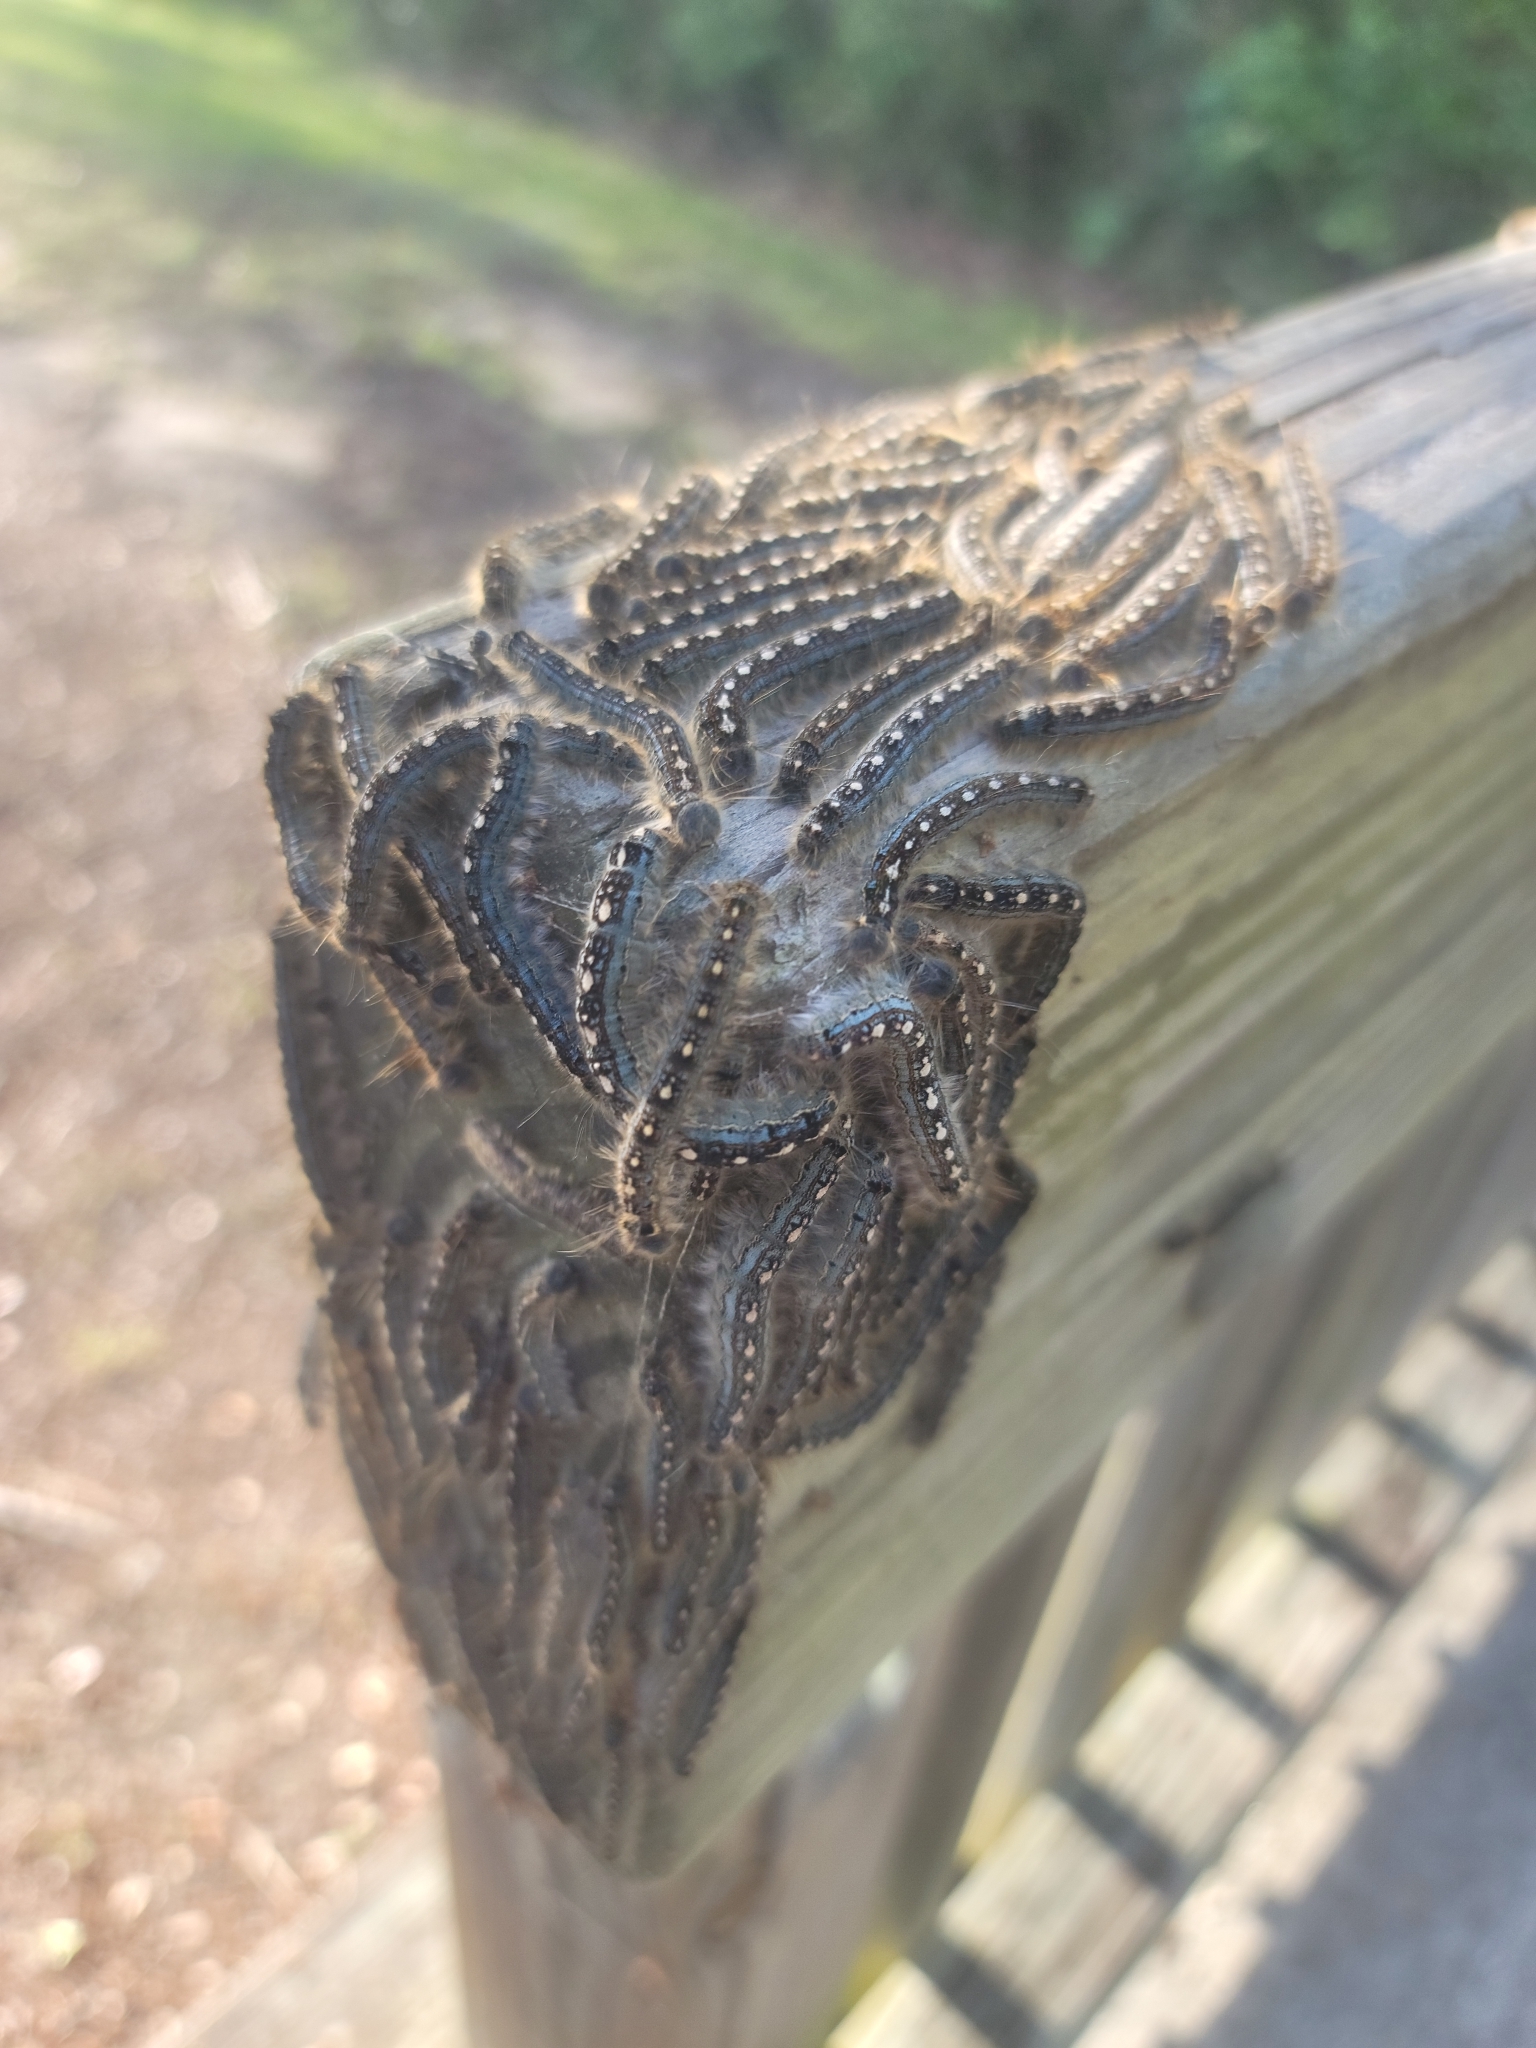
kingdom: Animalia
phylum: Arthropoda
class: Insecta
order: Lepidoptera
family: Lasiocampidae
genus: Malacosoma
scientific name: Malacosoma disstria
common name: Forest tent caterpillar
